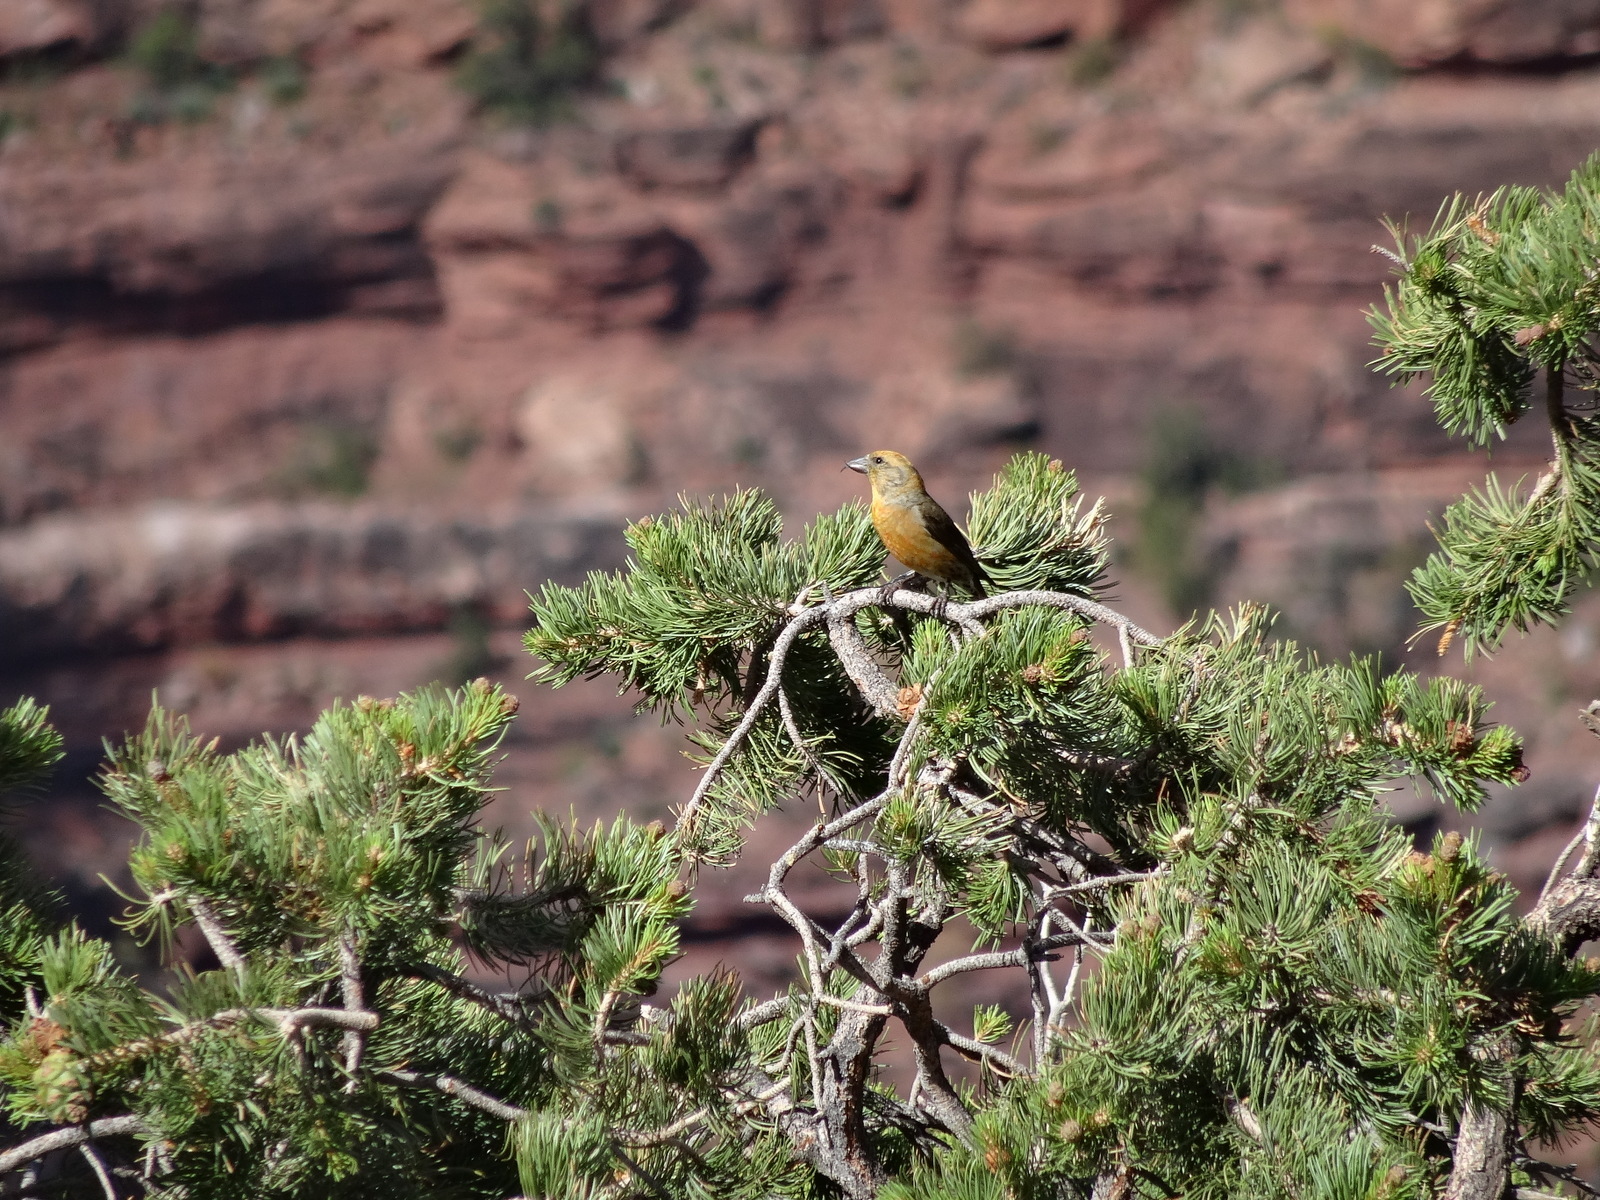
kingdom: Animalia
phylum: Chordata
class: Aves
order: Passeriformes
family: Fringillidae
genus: Loxia
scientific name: Loxia curvirostra
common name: Red crossbill
